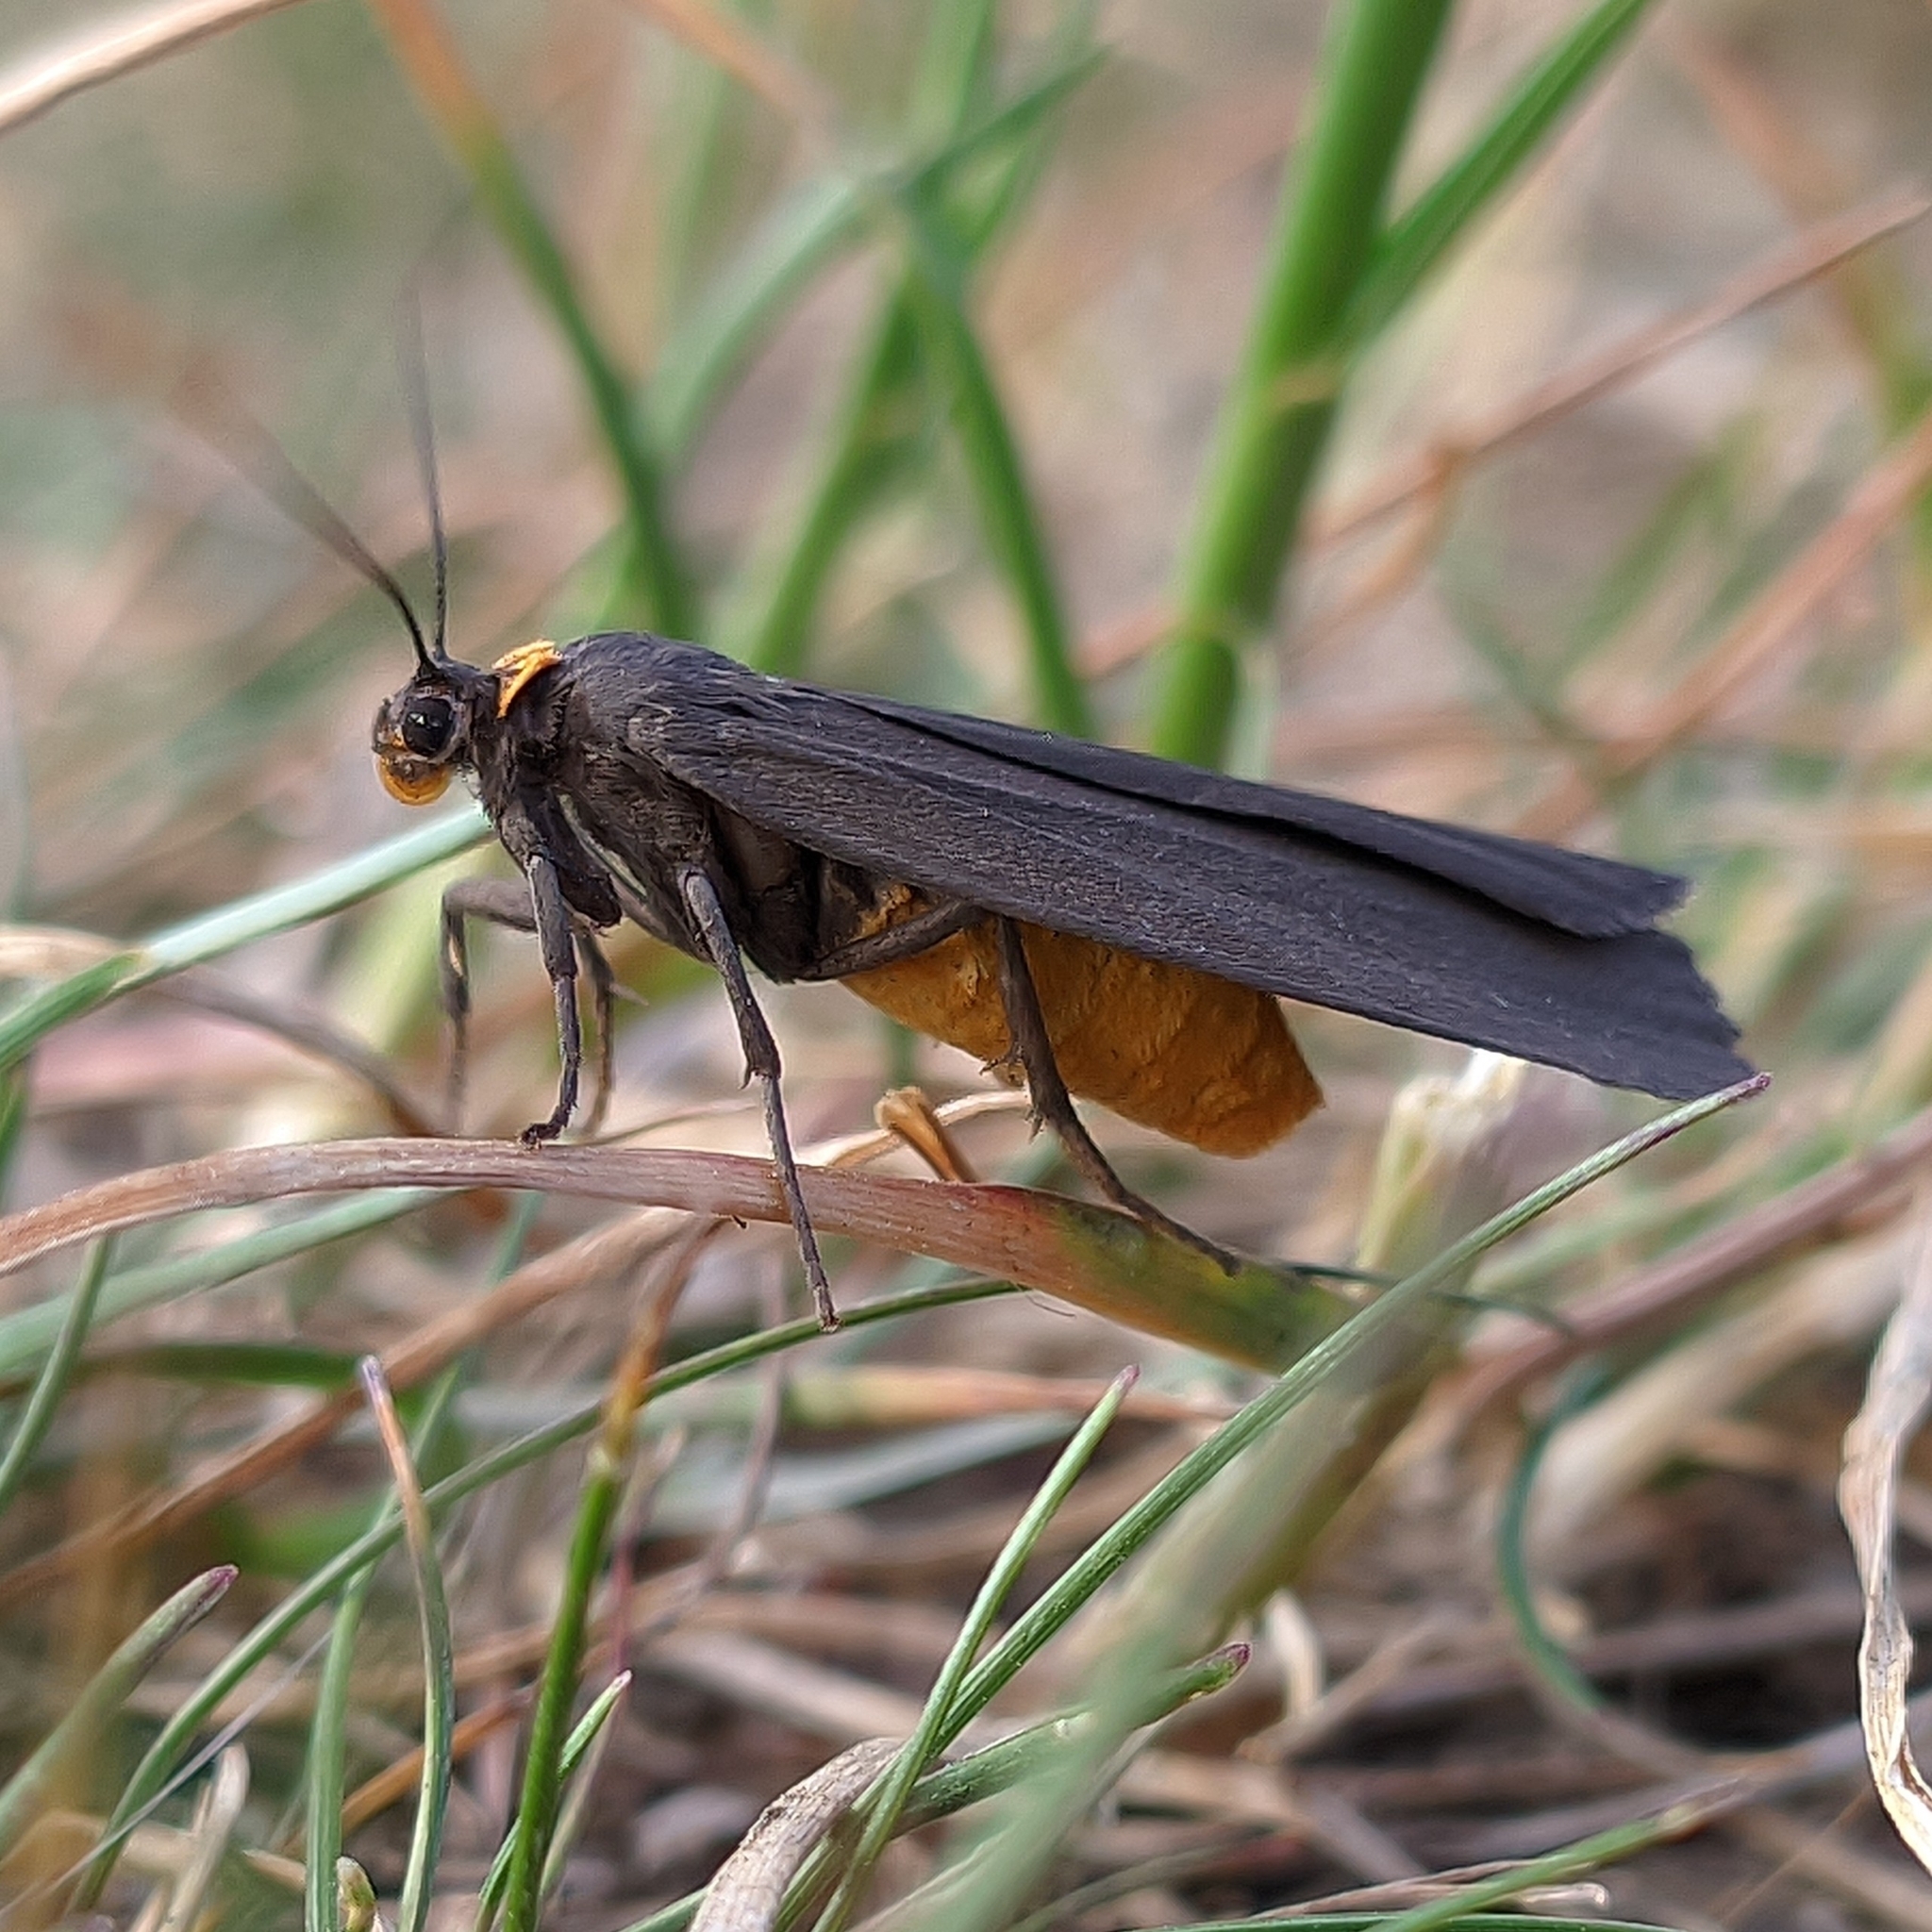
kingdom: Animalia
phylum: Arthropoda
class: Insecta
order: Lepidoptera
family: Erebidae
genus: Atolmis
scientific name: Atolmis rubricollis
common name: Red-necked footman
